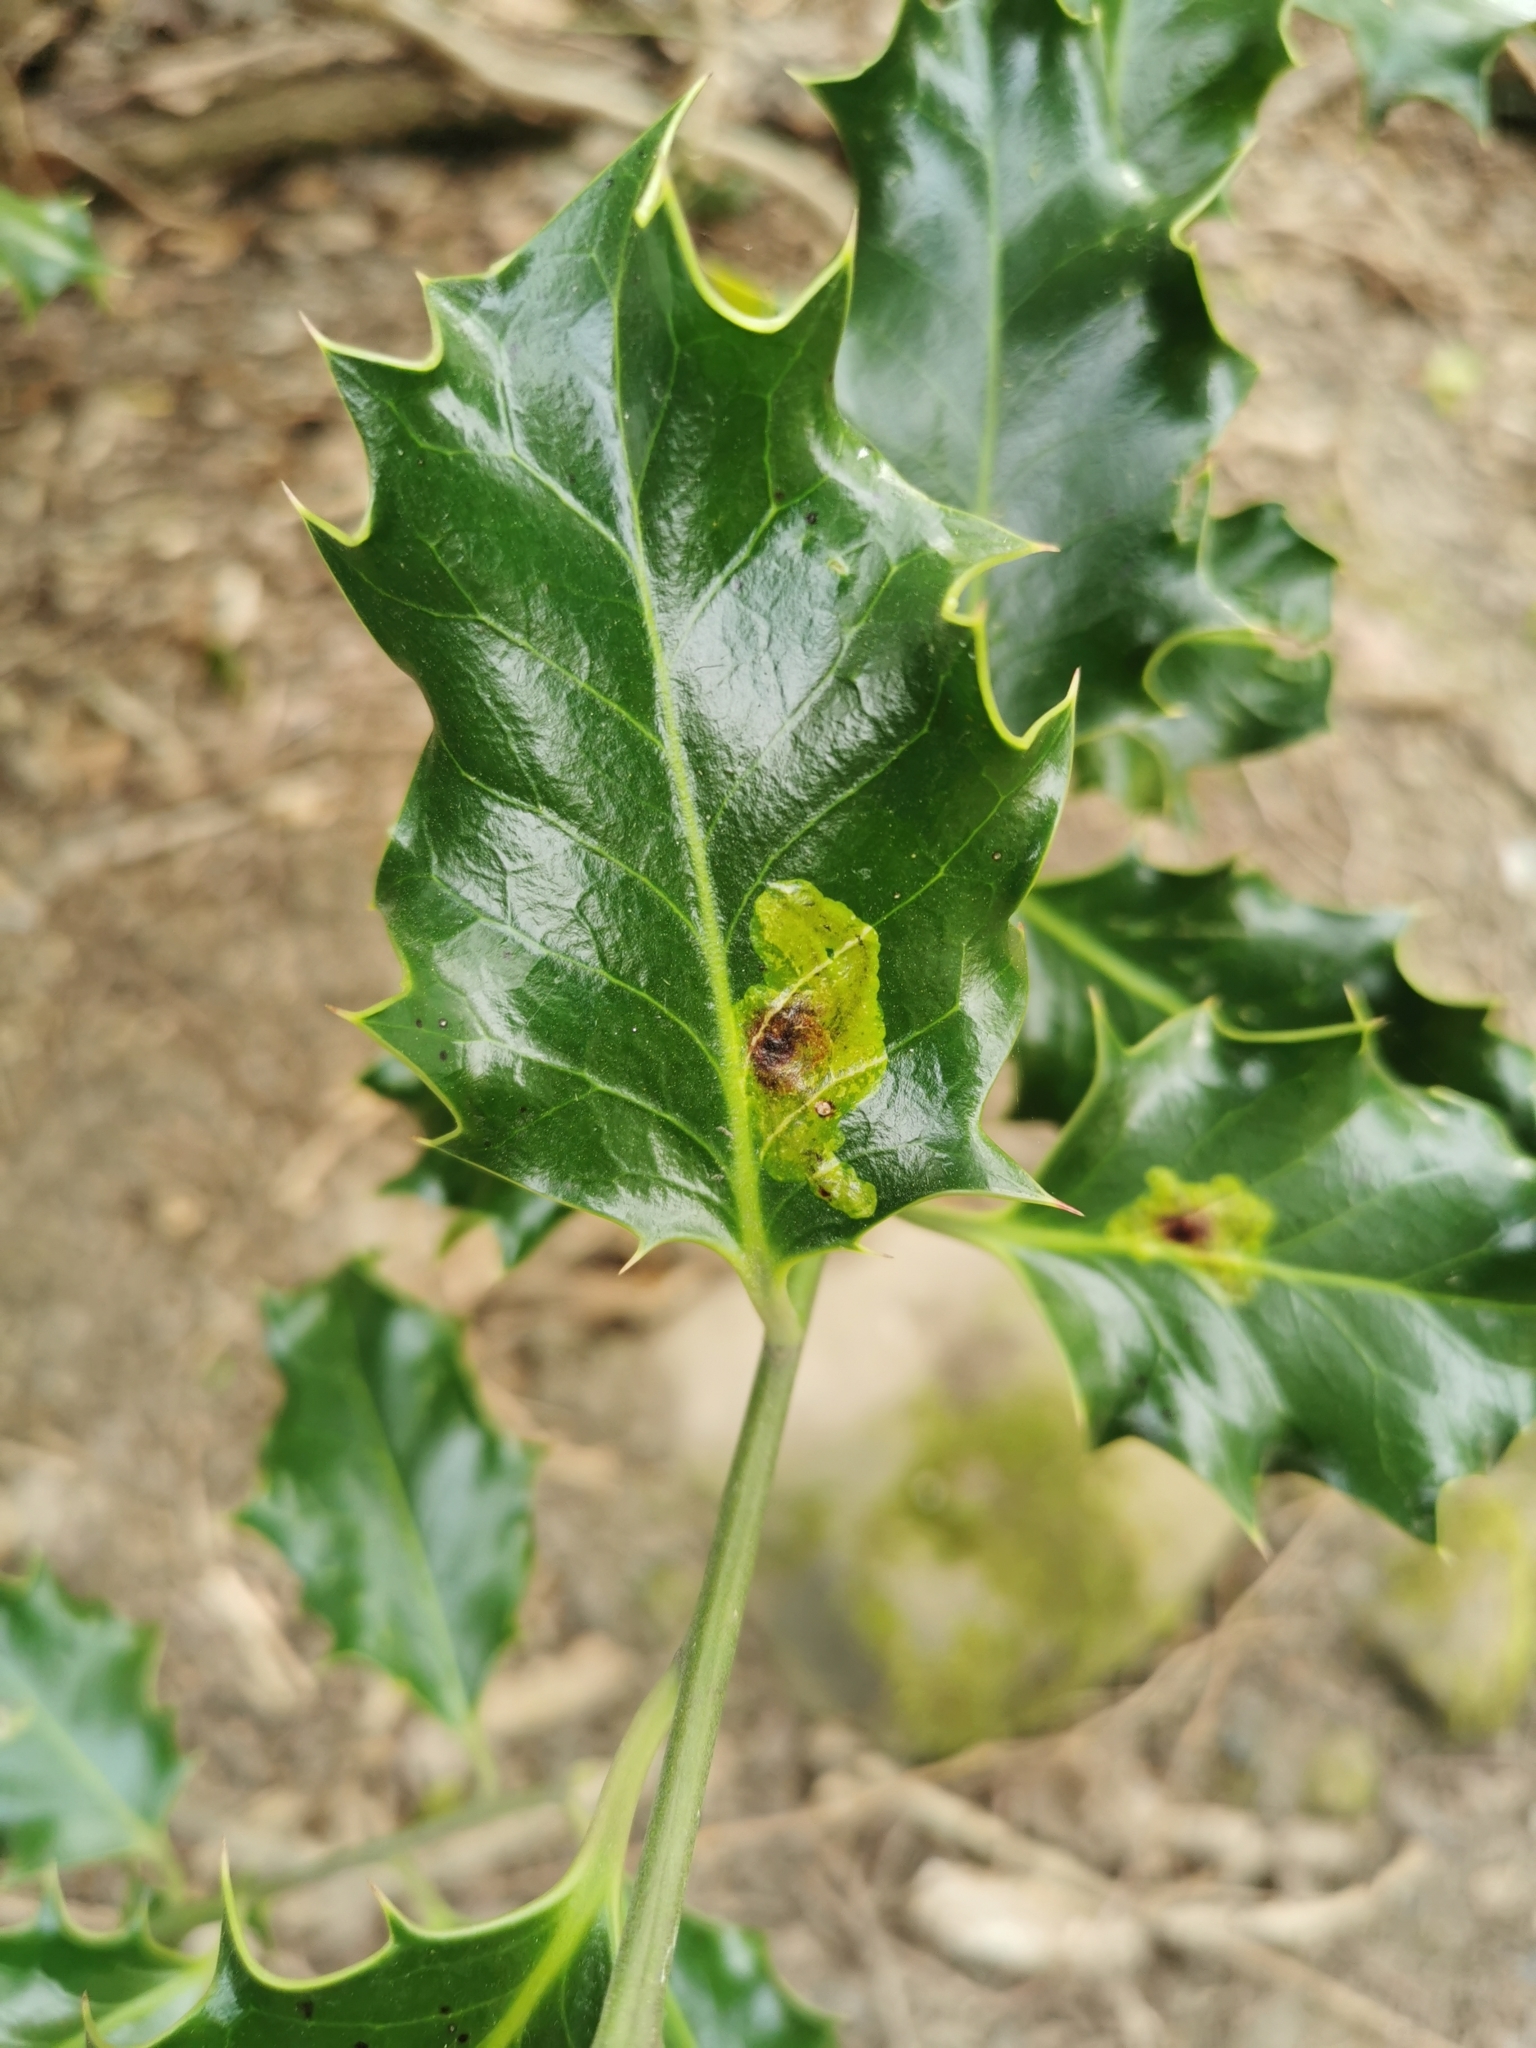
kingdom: Animalia
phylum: Arthropoda
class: Insecta
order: Diptera
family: Agromyzidae
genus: Phytomyza
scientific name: Phytomyza ilicis
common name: Holly leafminer
